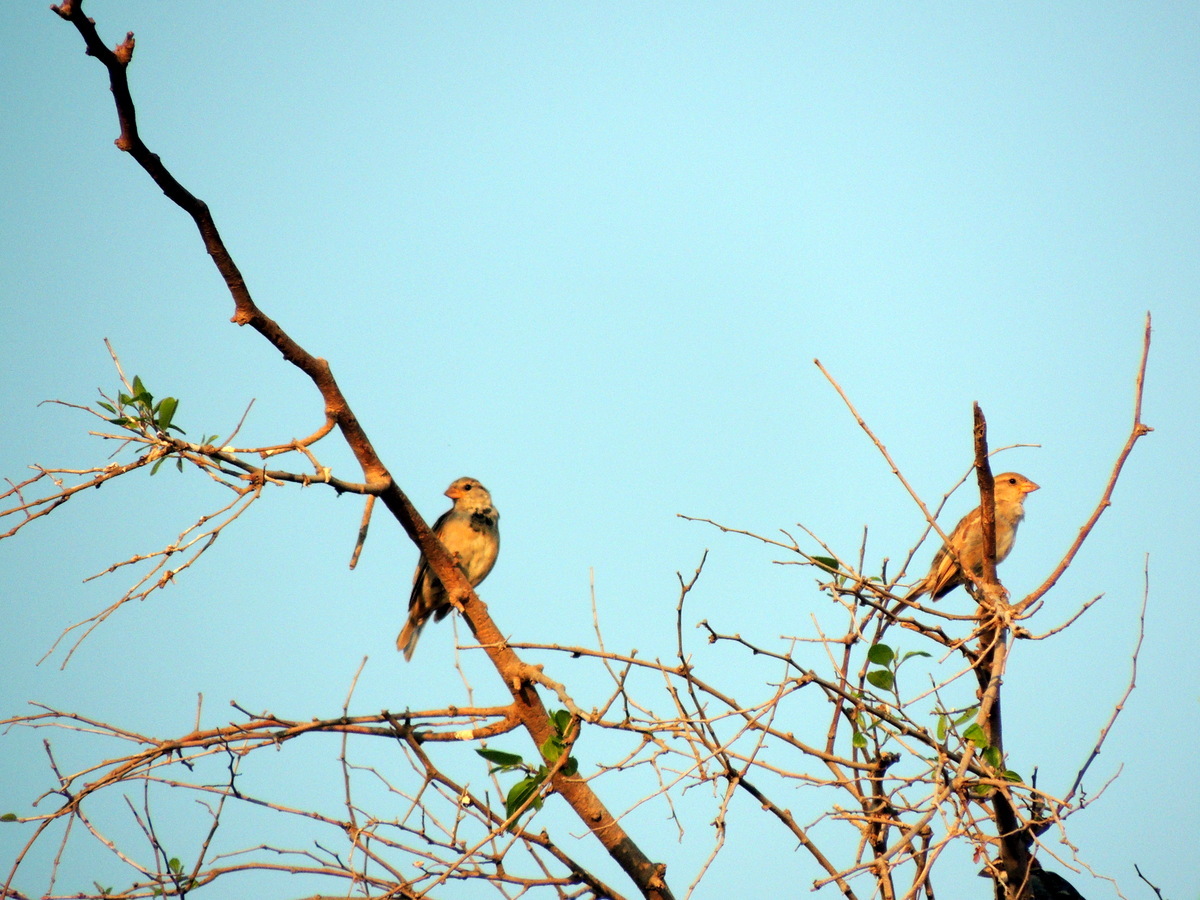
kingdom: Animalia
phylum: Chordata
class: Aves
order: Passeriformes
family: Passeridae
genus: Passer
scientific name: Passer domesticus
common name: House sparrow
